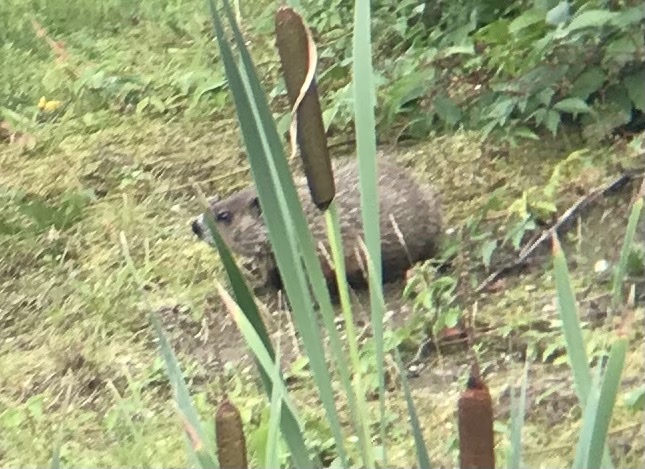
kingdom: Animalia
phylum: Chordata
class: Mammalia
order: Rodentia
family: Sciuridae
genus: Marmota
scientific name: Marmota monax
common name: Groundhog
